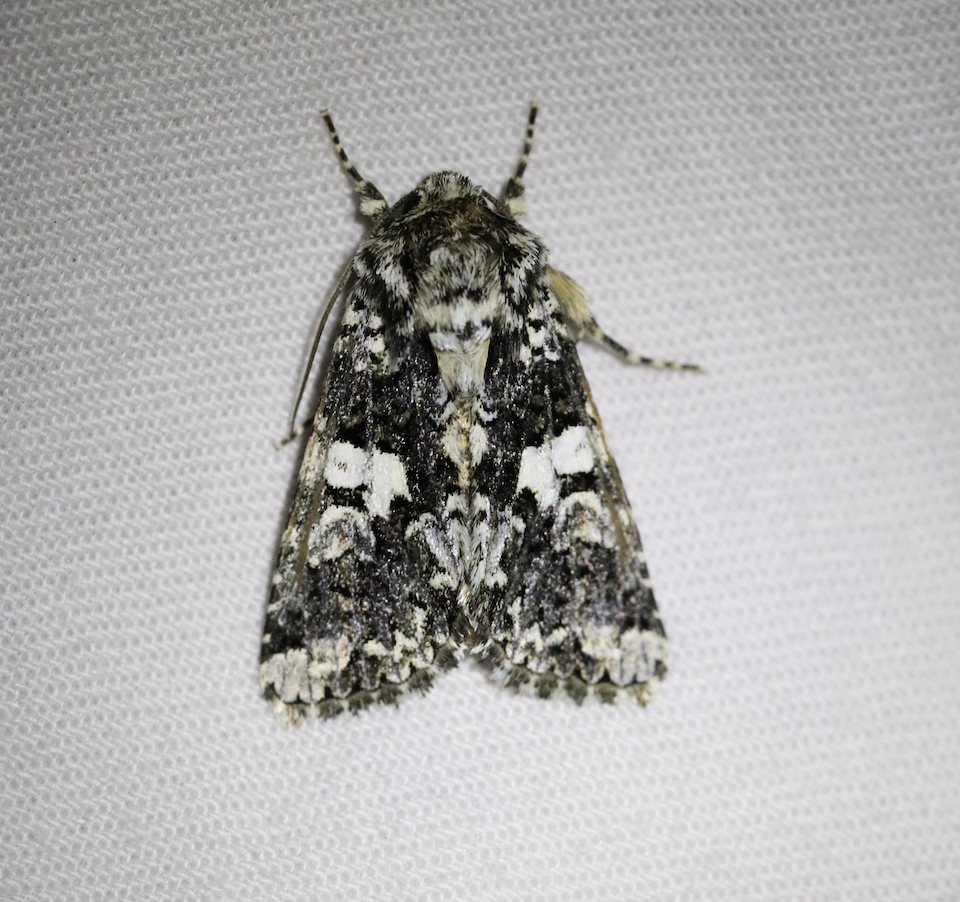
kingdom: Animalia
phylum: Arthropoda
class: Insecta
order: Lepidoptera
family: Noctuidae
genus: Hadena
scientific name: Hadena confusa
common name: Marbled coronet
